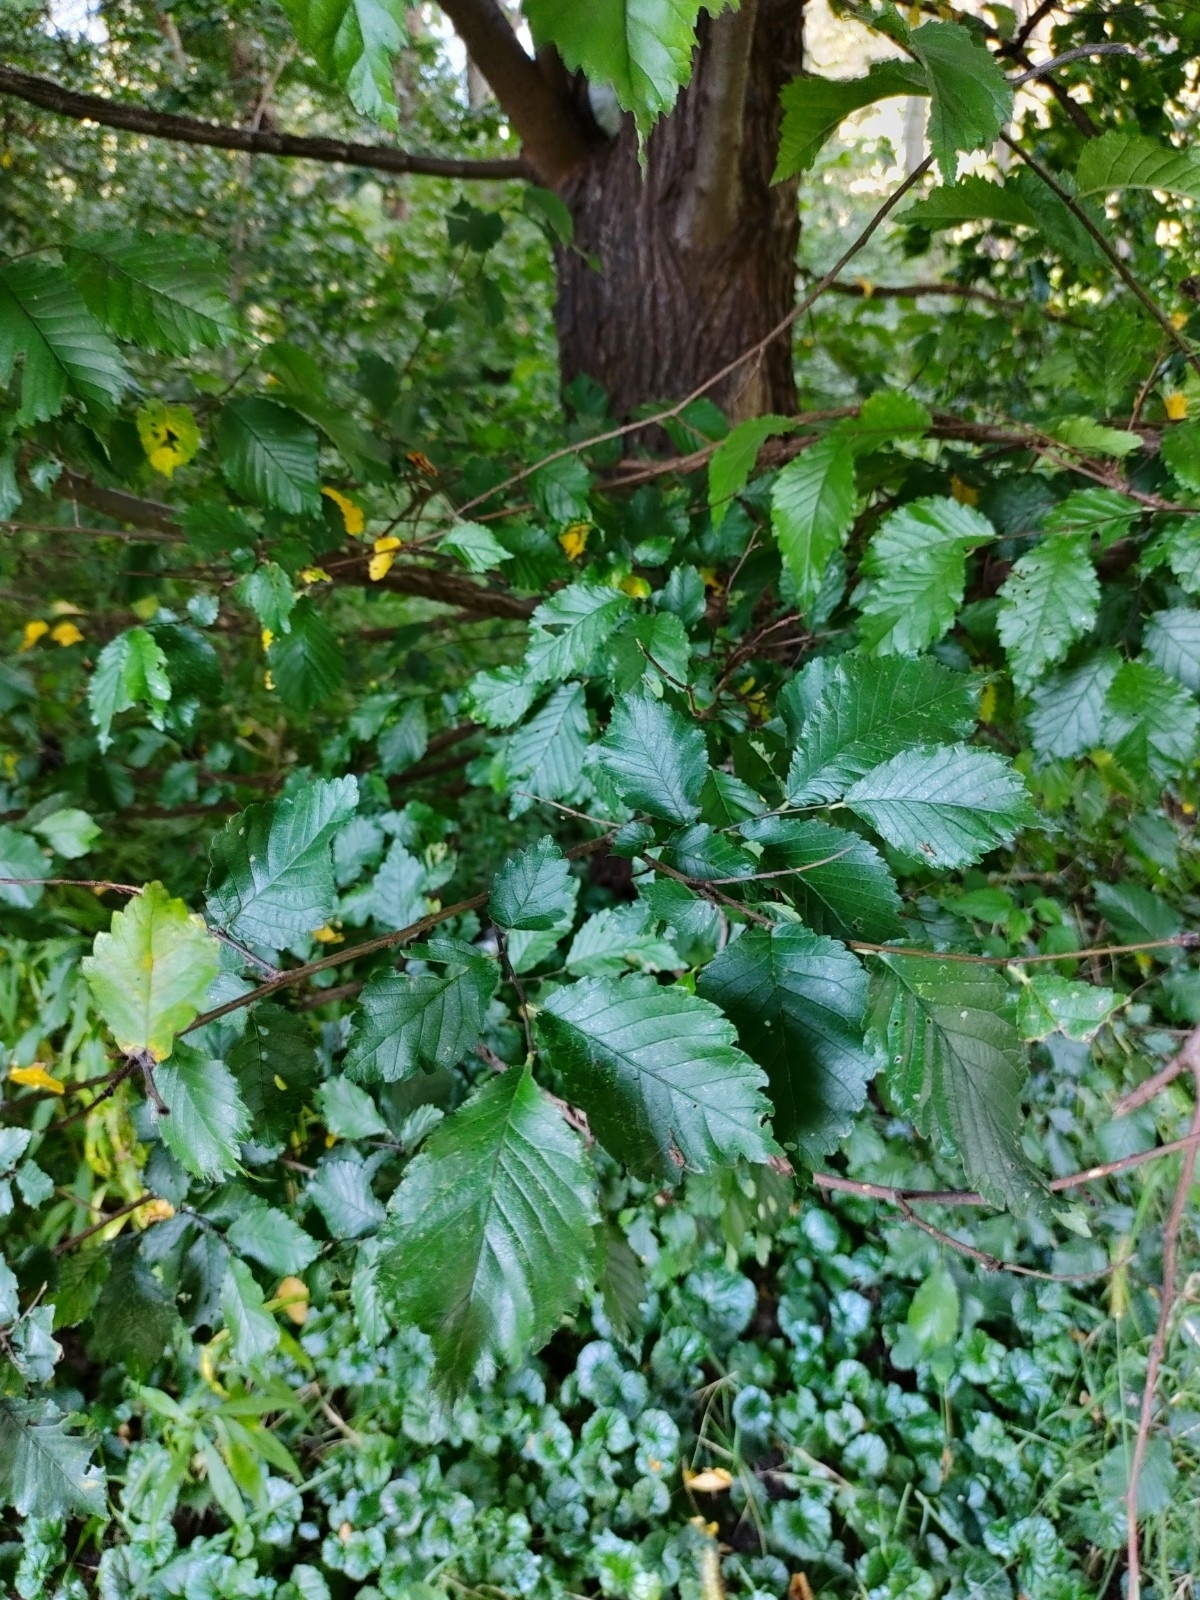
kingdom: Plantae
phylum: Tracheophyta
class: Magnoliopsida
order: Rosales
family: Ulmaceae
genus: Ulmus
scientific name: Ulmus minor
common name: Small-leaved elm
